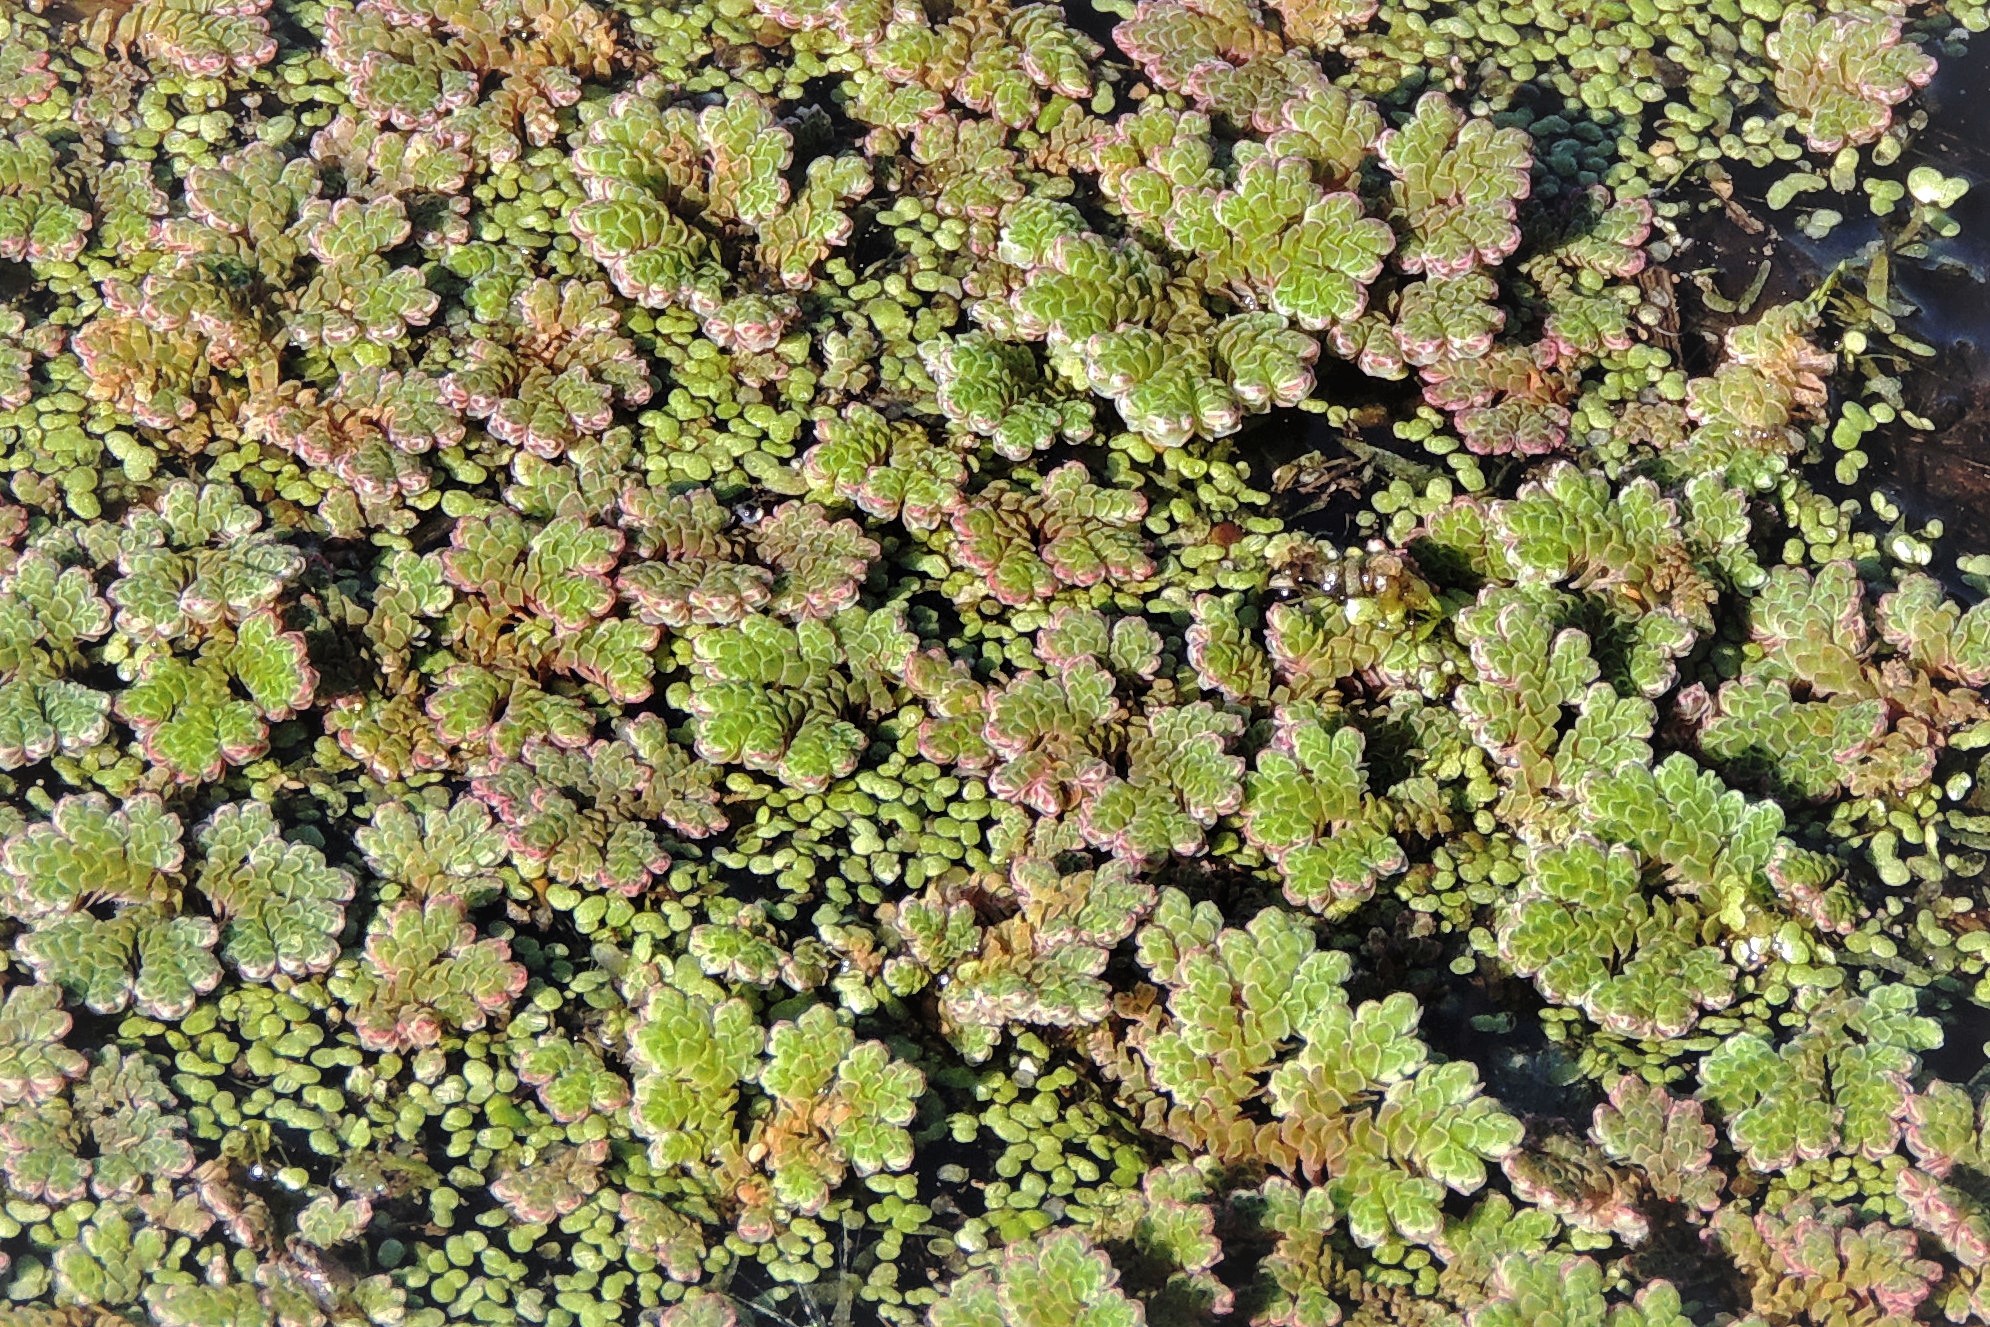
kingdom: Plantae
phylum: Tracheophyta
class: Polypodiopsida
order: Salviniales
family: Salviniaceae
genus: Azolla
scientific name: Azolla filiculoides
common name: Water fern
